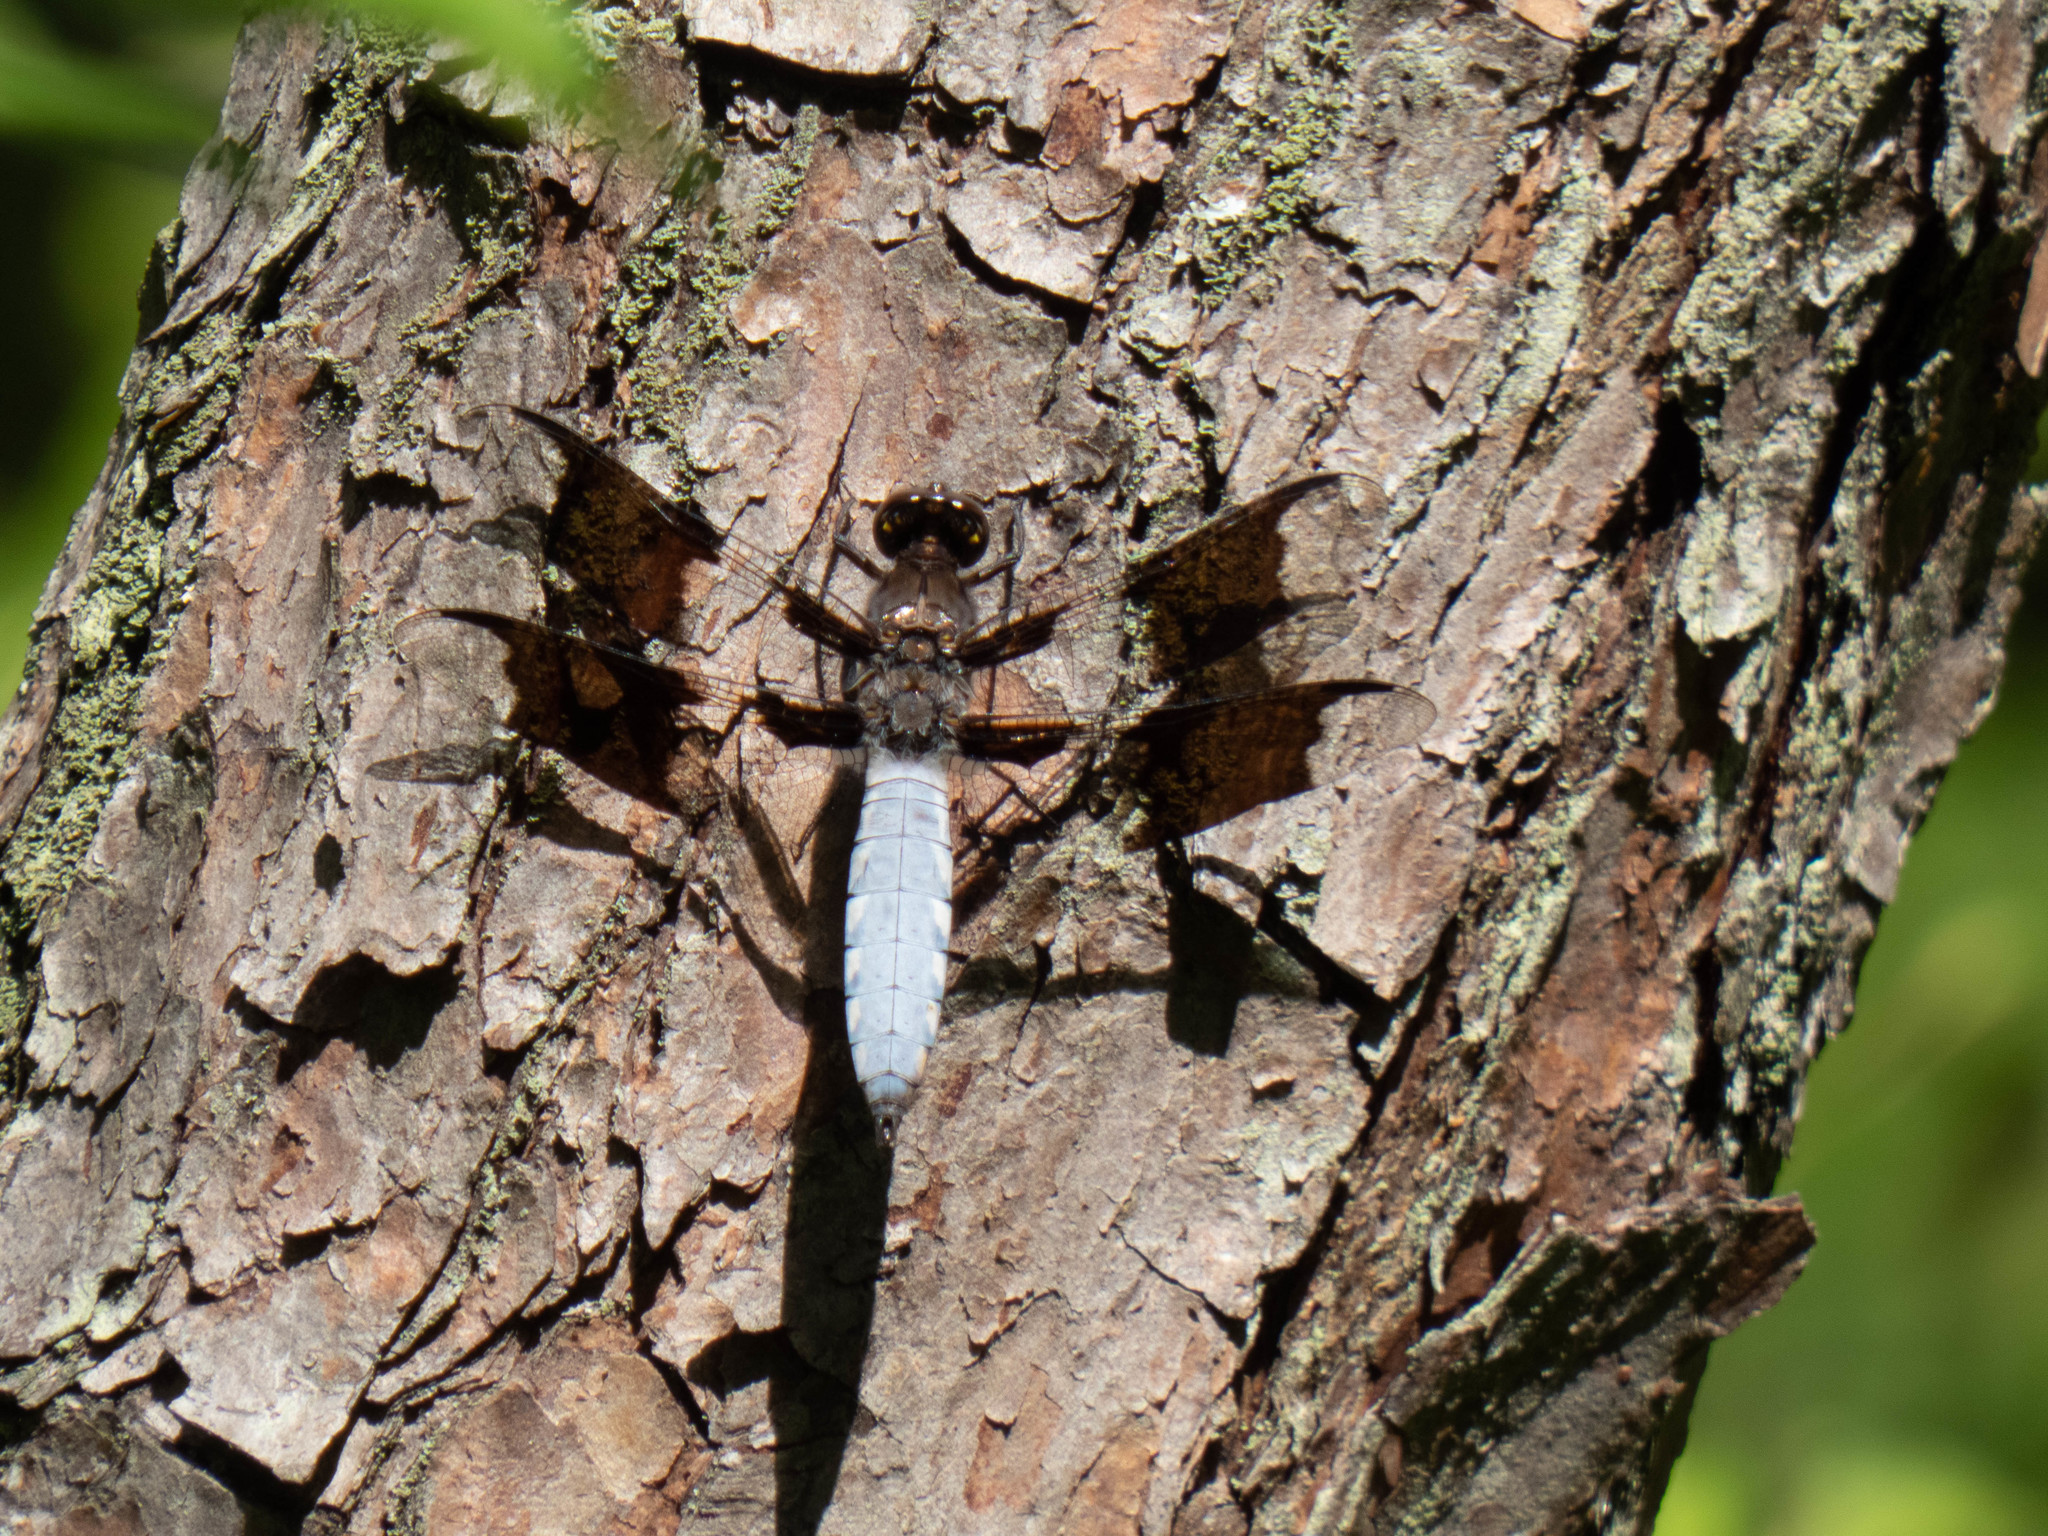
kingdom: Animalia
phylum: Arthropoda
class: Insecta
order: Odonata
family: Libellulidae
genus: Plathemis
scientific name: Plathemis lydia
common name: Common whitetail
